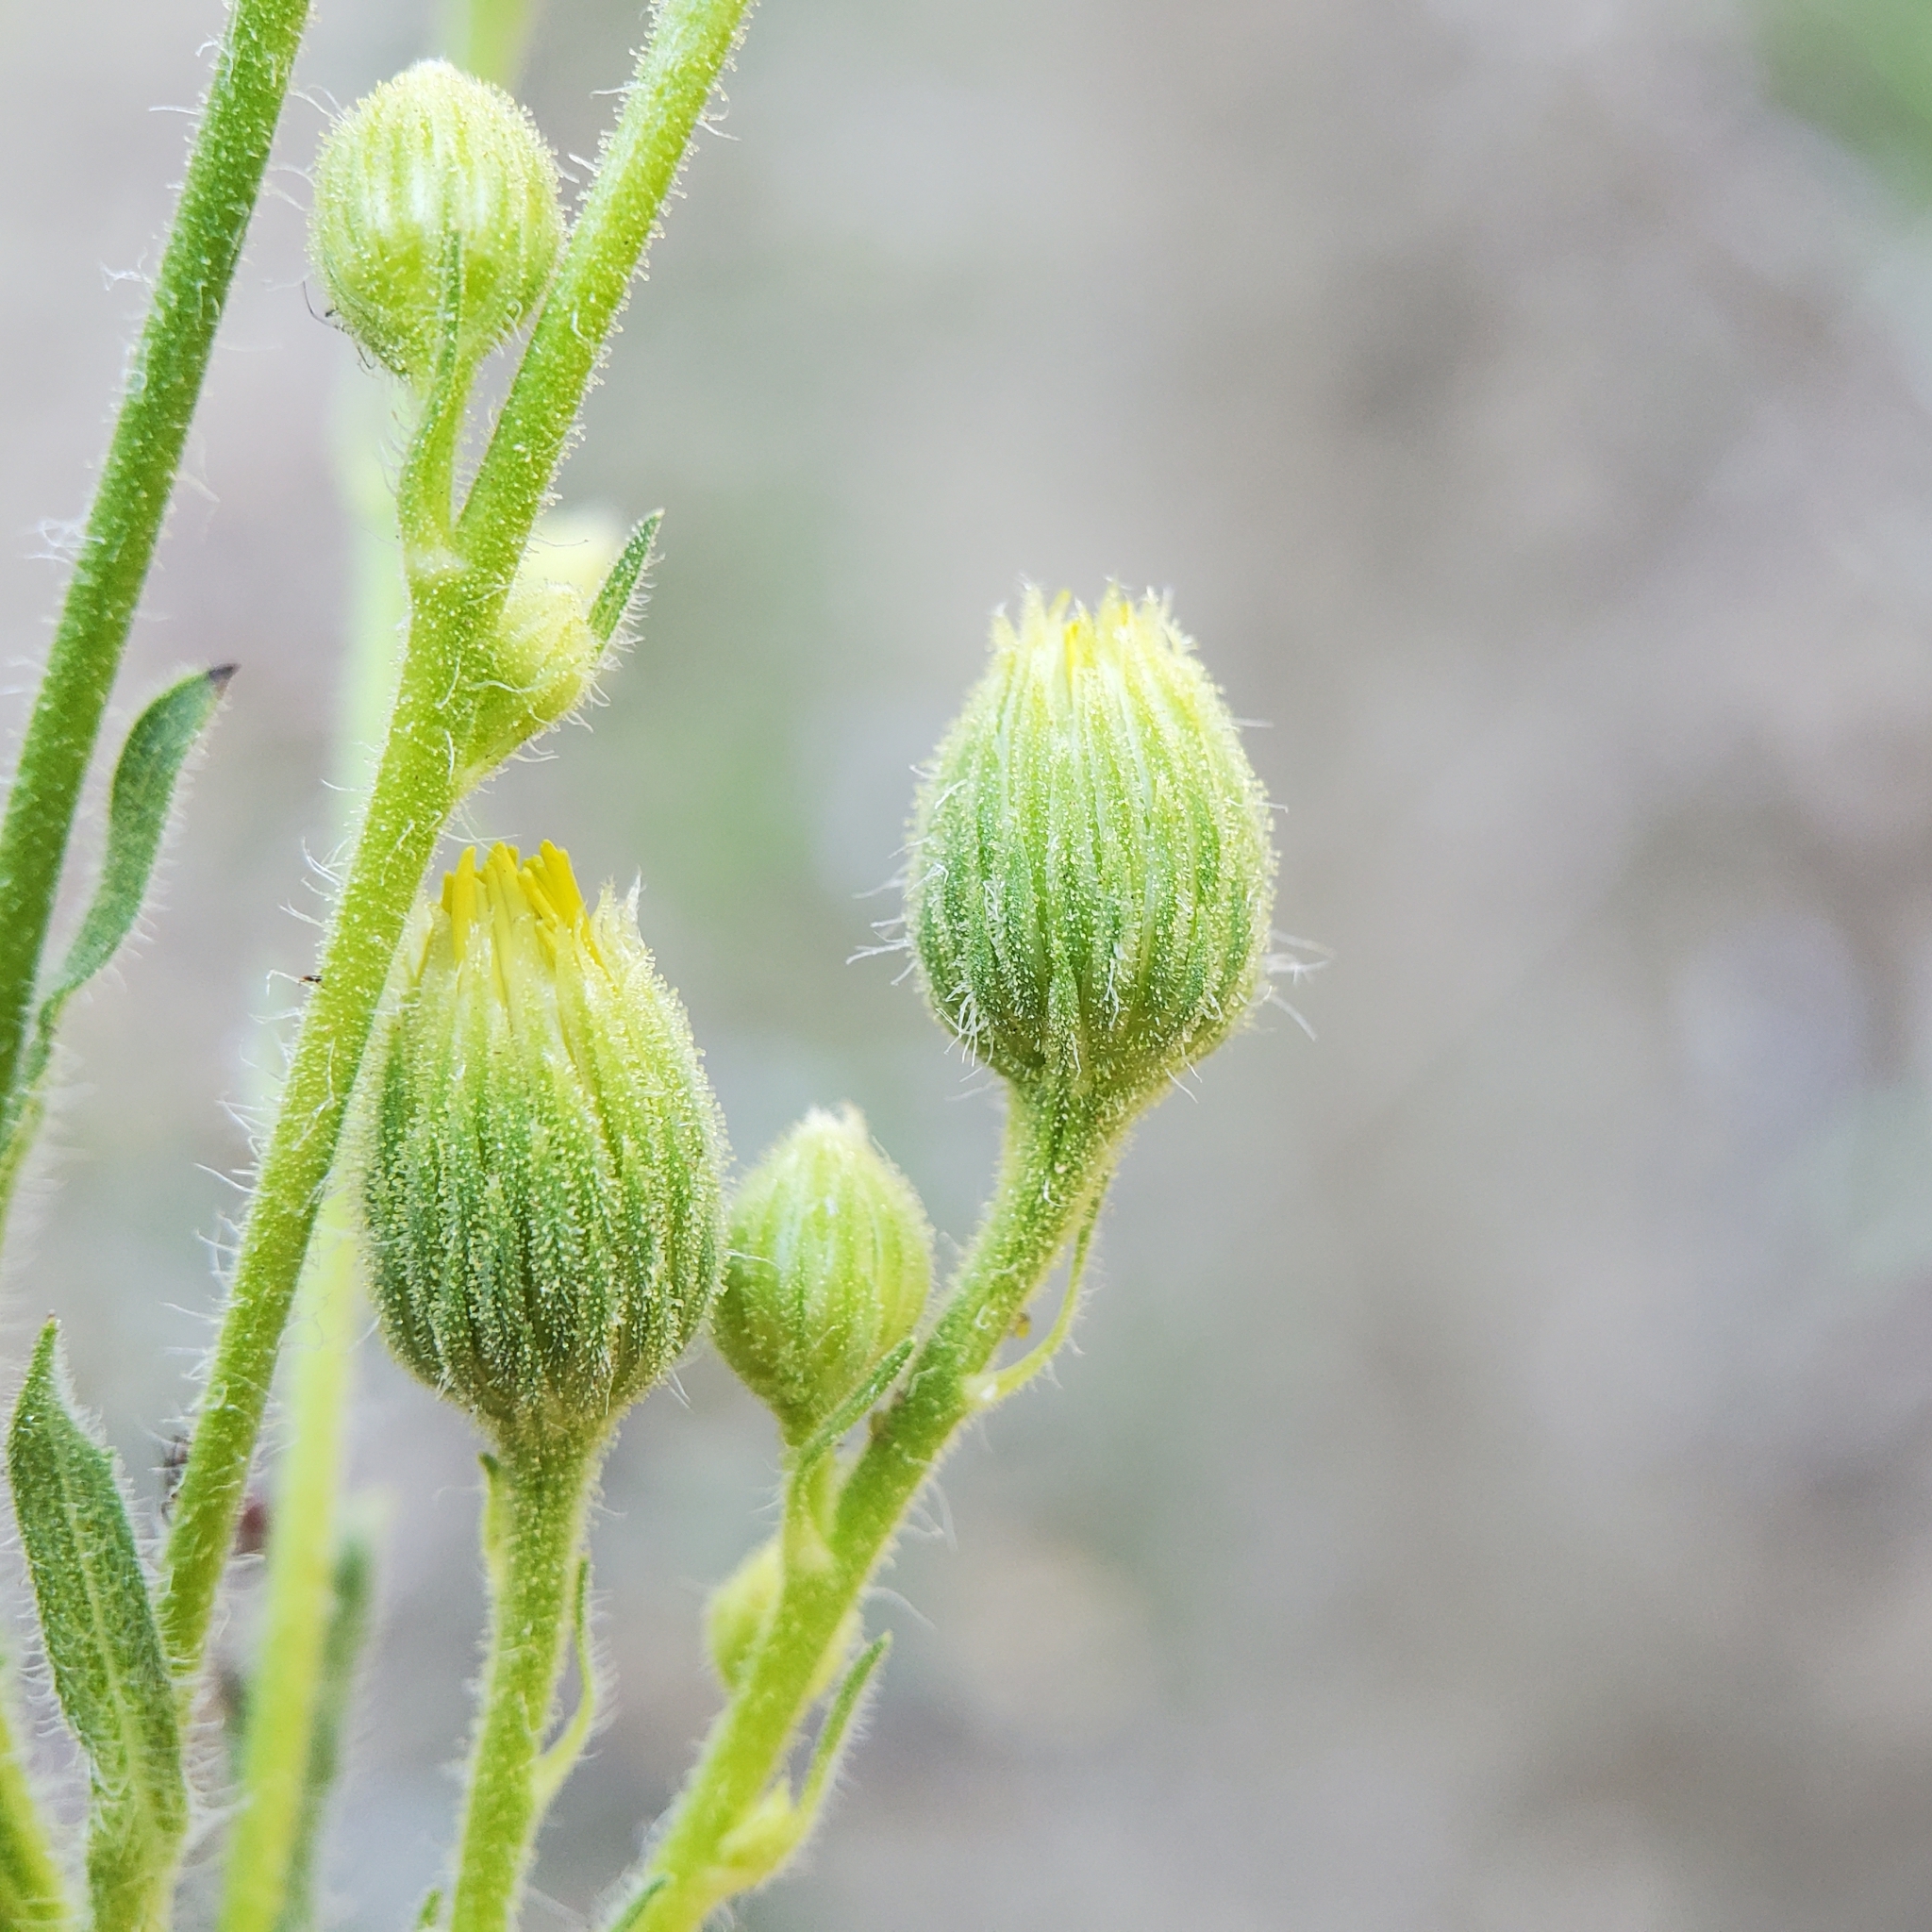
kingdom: Plantae
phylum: Tracheophyta
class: Magnoliopsida
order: Asterales
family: Asteraceae
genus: Heterotheca
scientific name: Heterotheca grandiflora
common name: Telegraphweed
